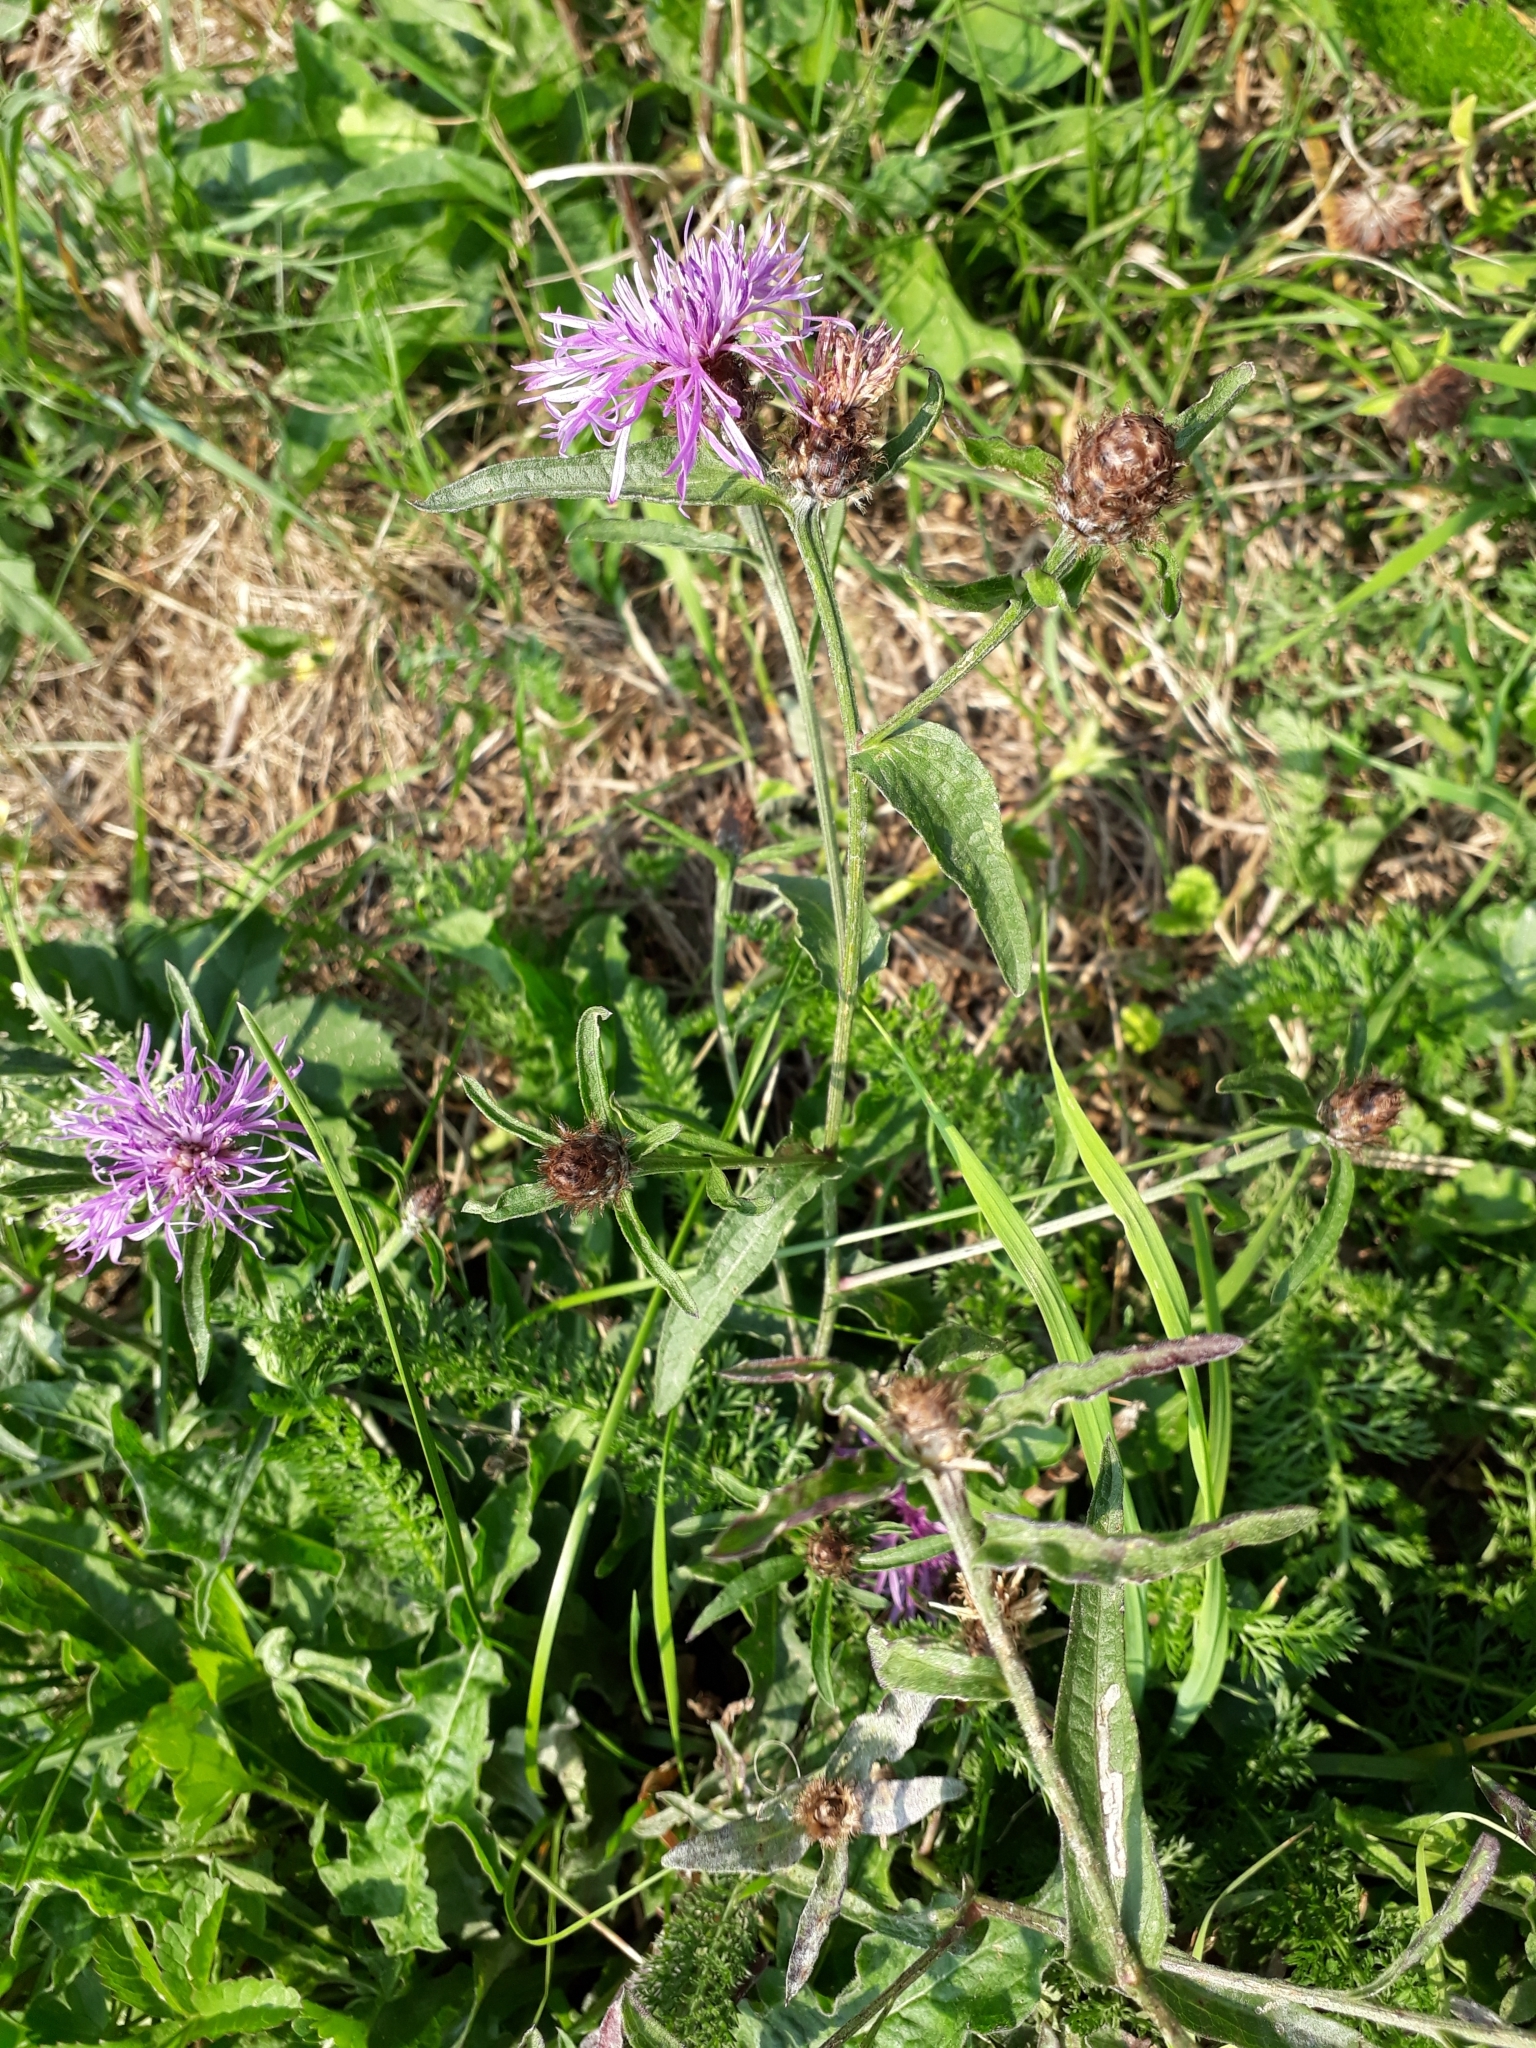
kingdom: Plantae
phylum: Tracheophyta
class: Magnoliopsida
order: Asterales
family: Asteraceae
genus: Centaurea
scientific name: Centaurea jacea
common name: Brown knapweed
